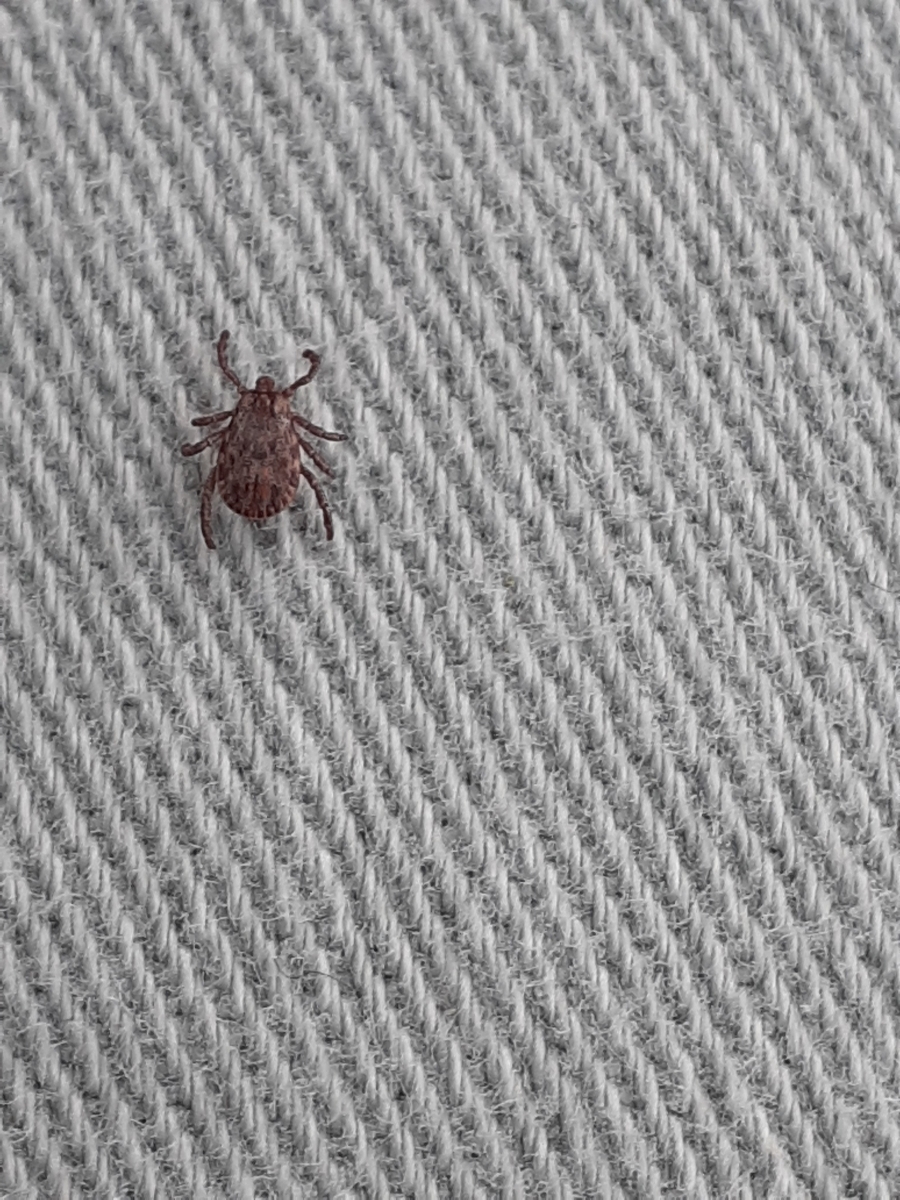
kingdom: Animalia
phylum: Arthropoda
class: Arachnida
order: Ixodida
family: Ixodidae
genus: Dermacentor
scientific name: Dermacentor occidentalis
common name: Net tick
